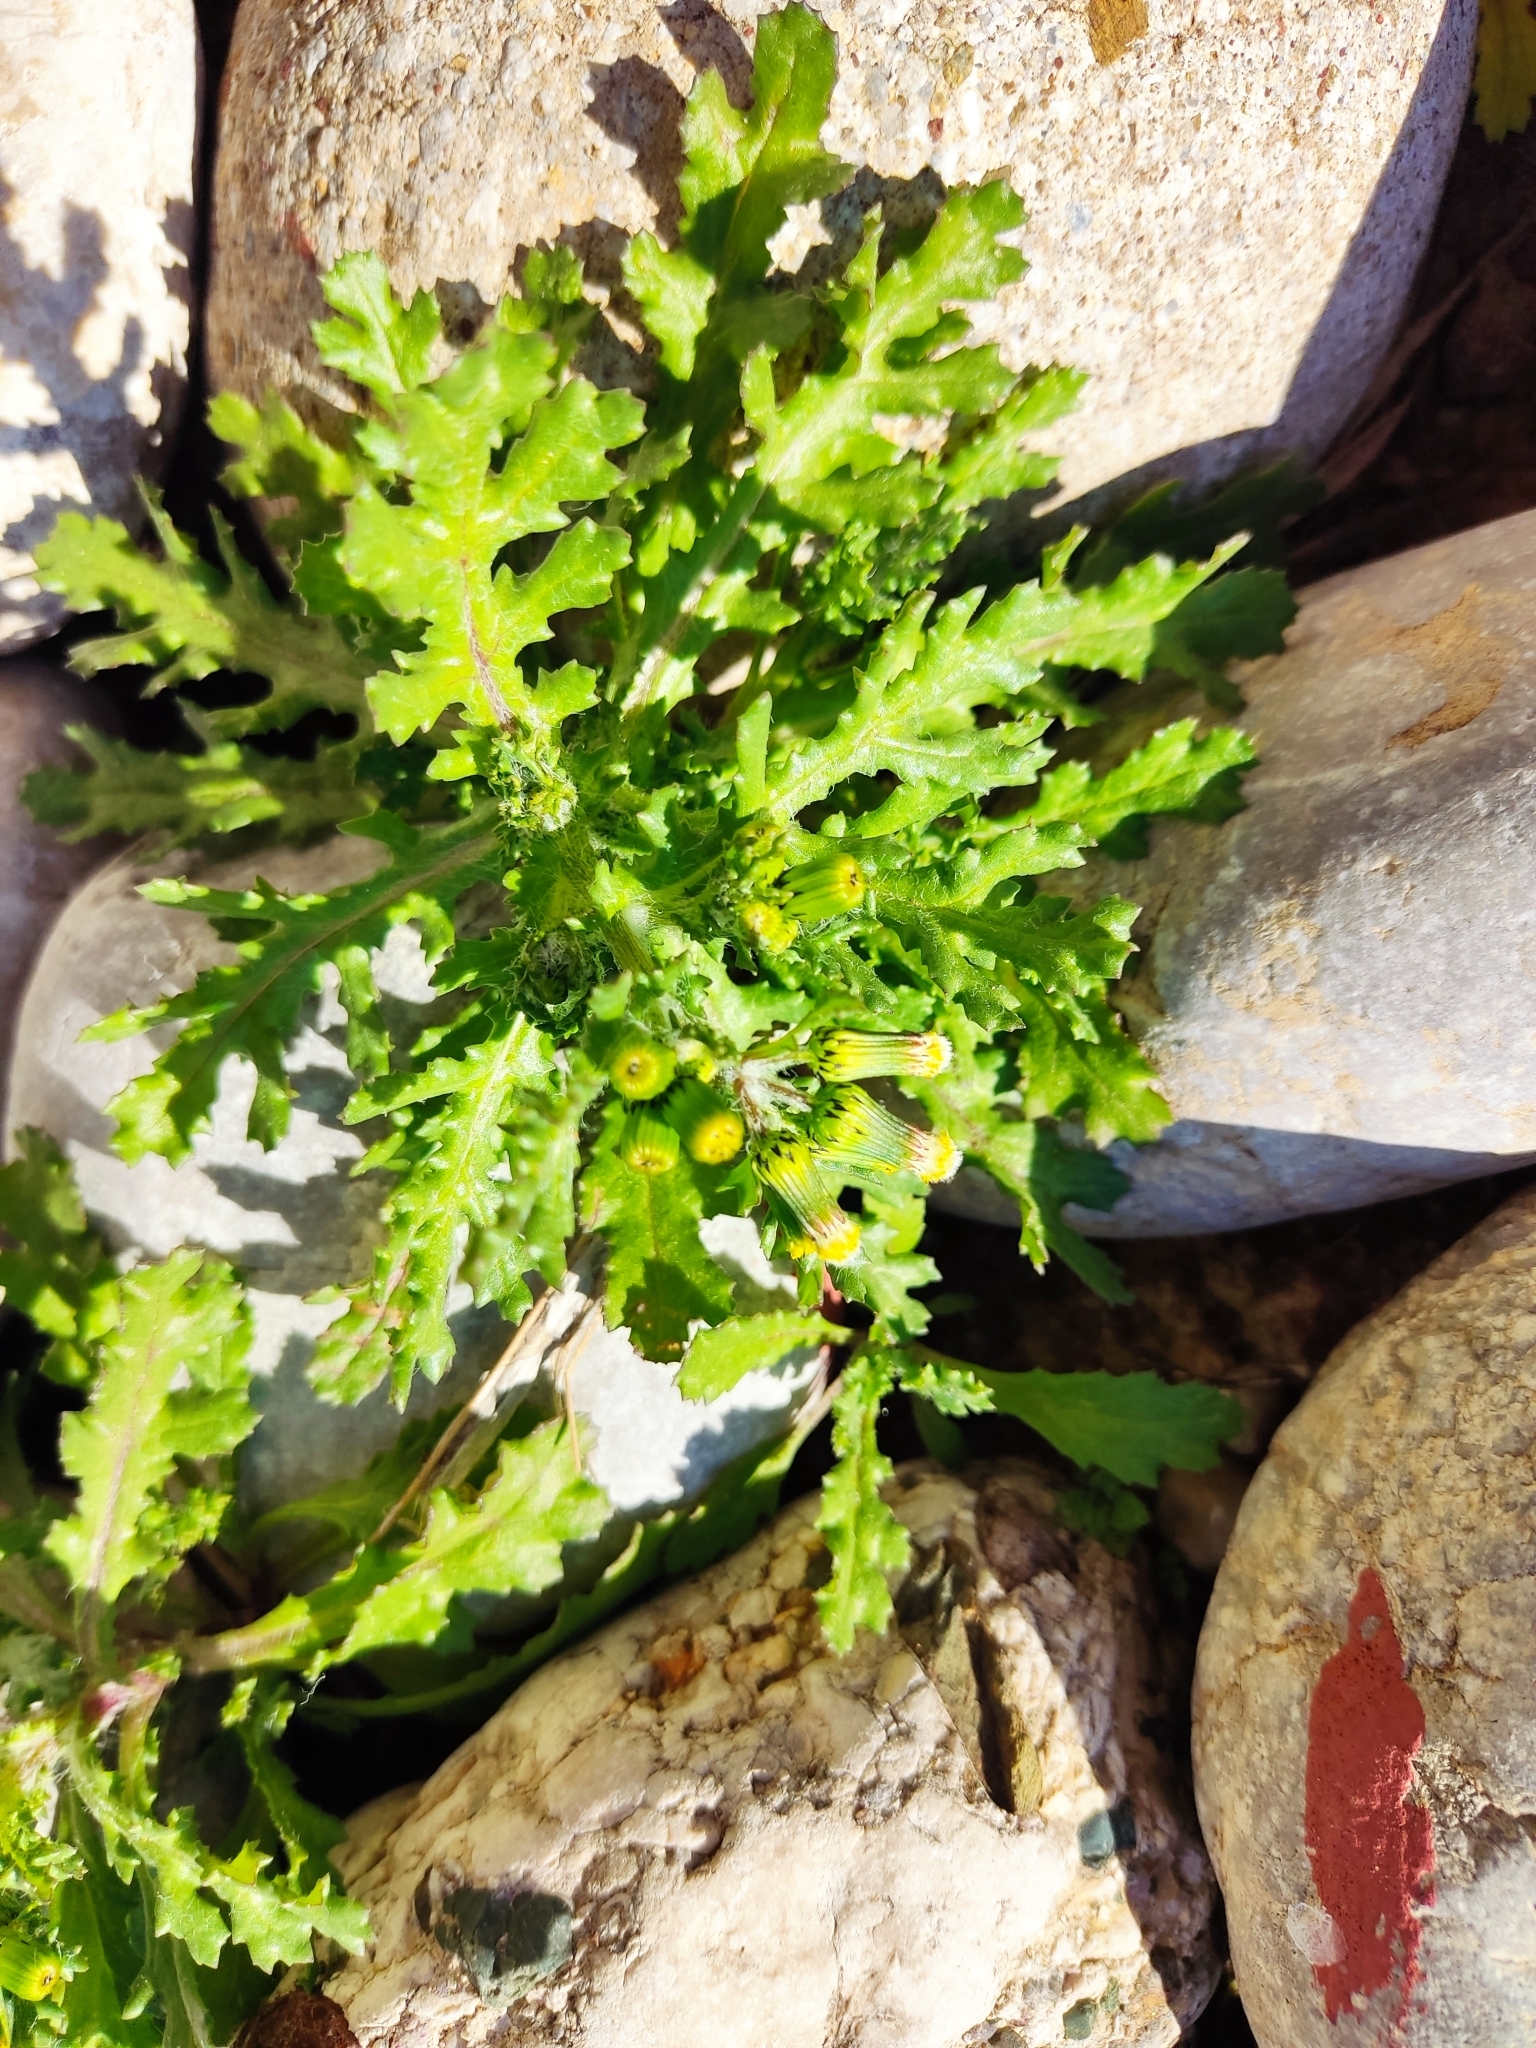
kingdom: Plantae
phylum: Tracheophyta
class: Magnoliopsida
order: Asterales
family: Asteraceae
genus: Senecio
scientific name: Senecio vulgaris
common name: Old-man-in-the-spring
